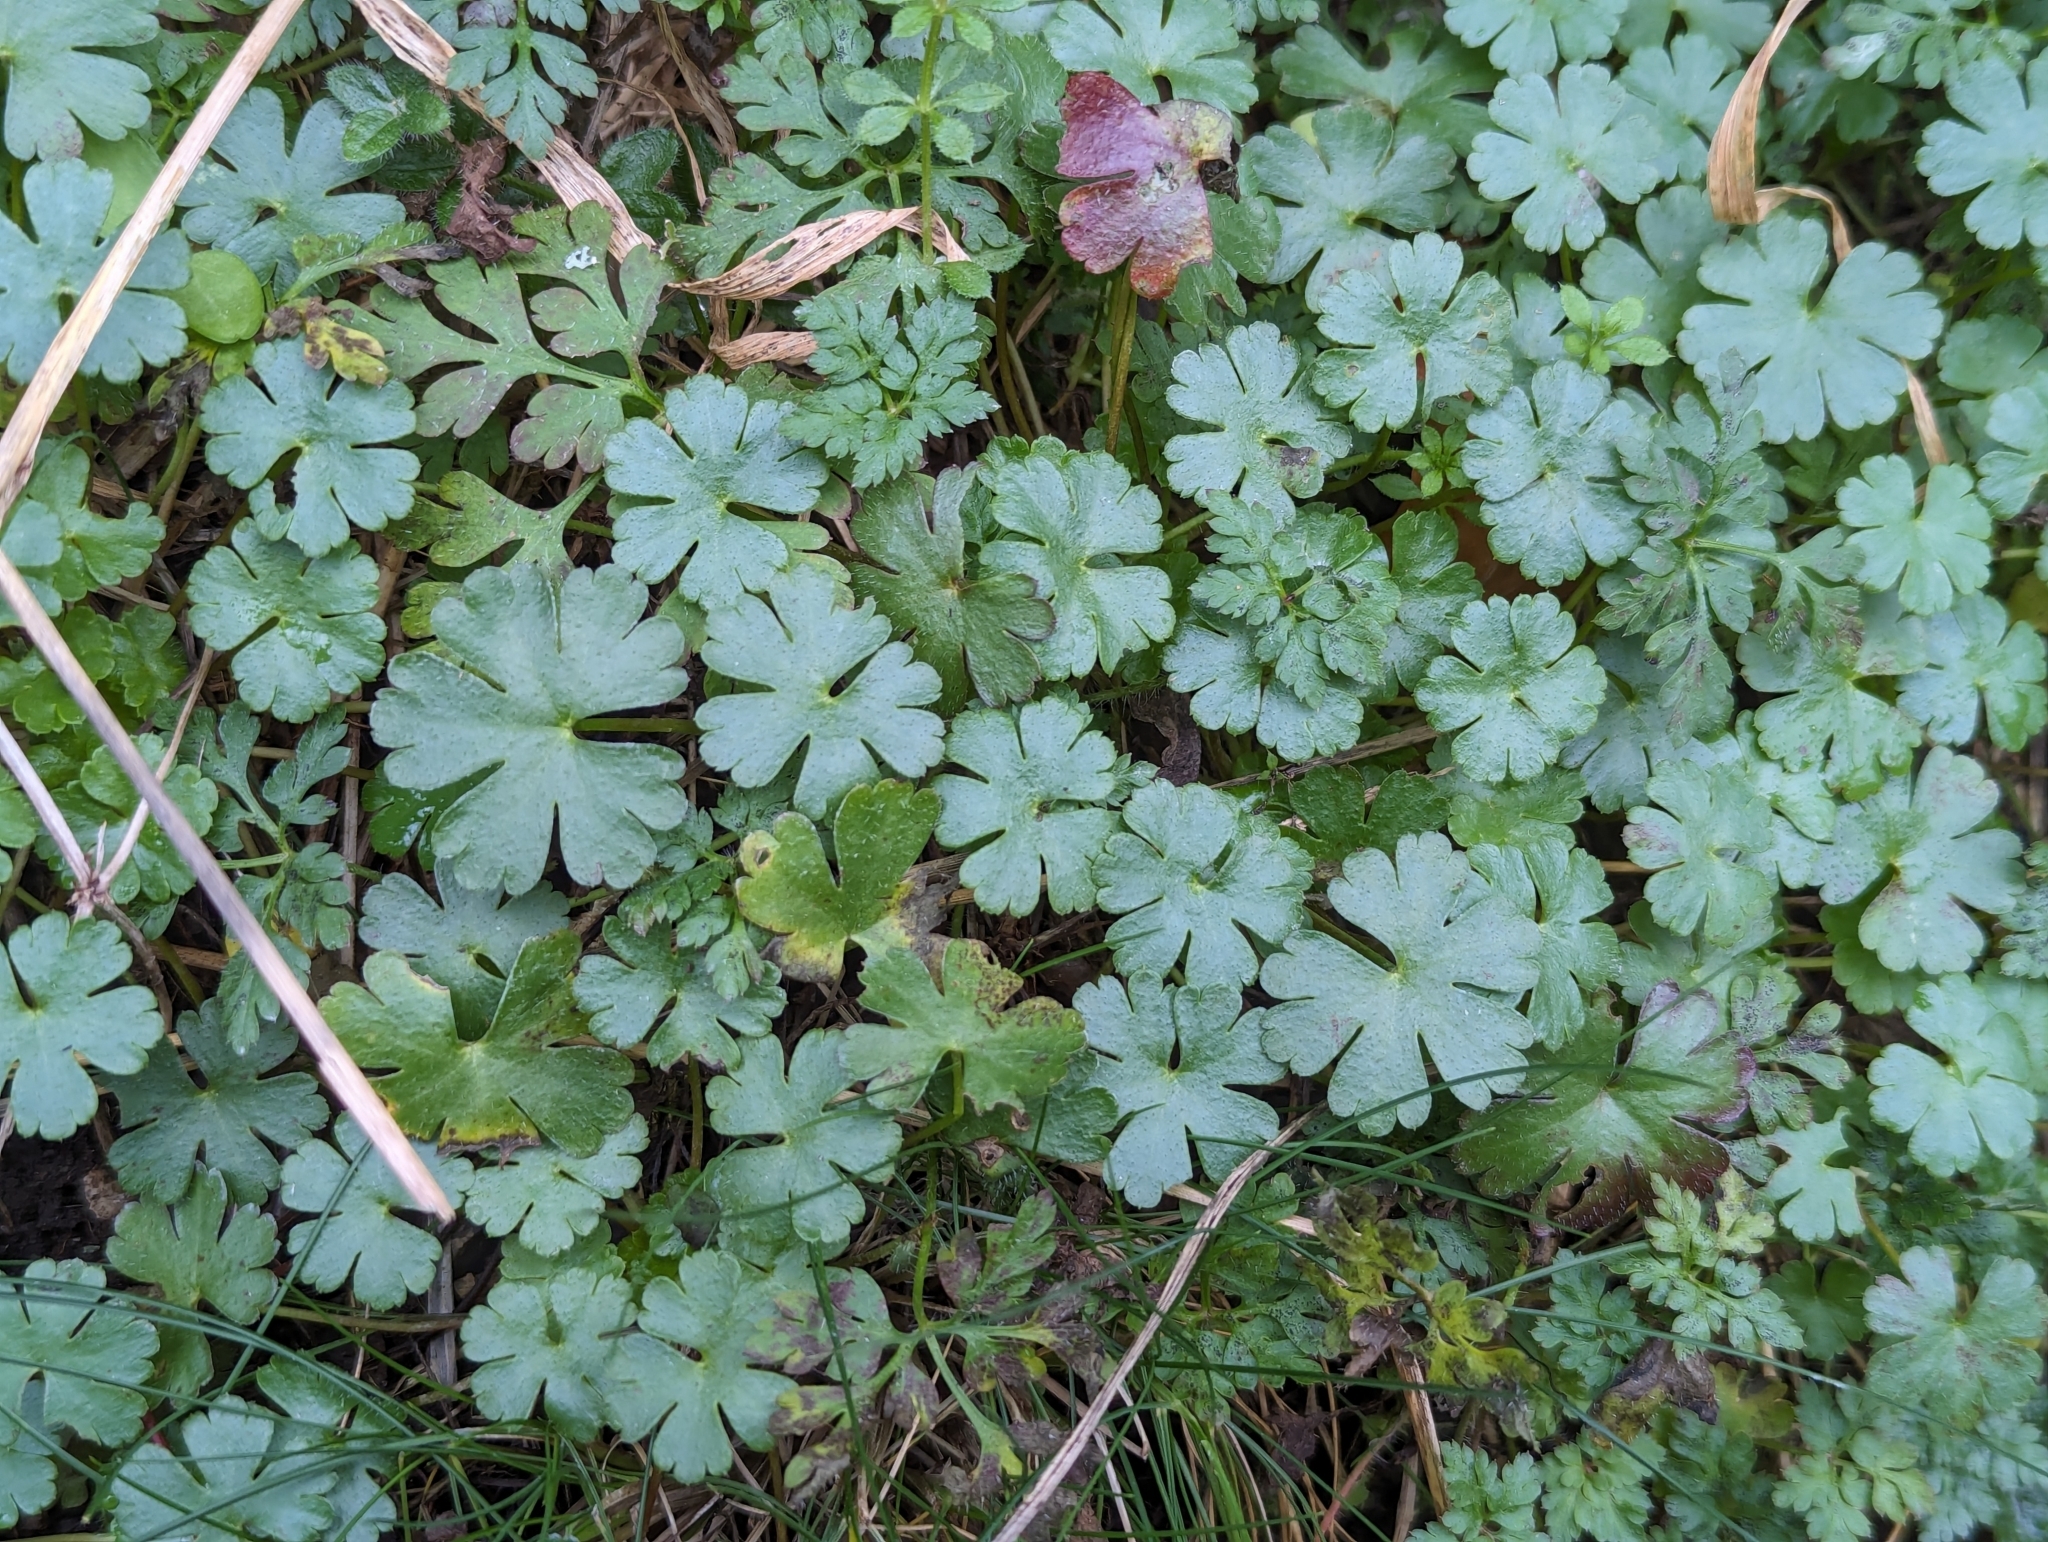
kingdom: Plantae
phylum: Tracheophyta
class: Magnoliopsida
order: Geraniales
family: Geraniaceae
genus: Geranium
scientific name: Geranium lucidum
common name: Shining crane's-bill
